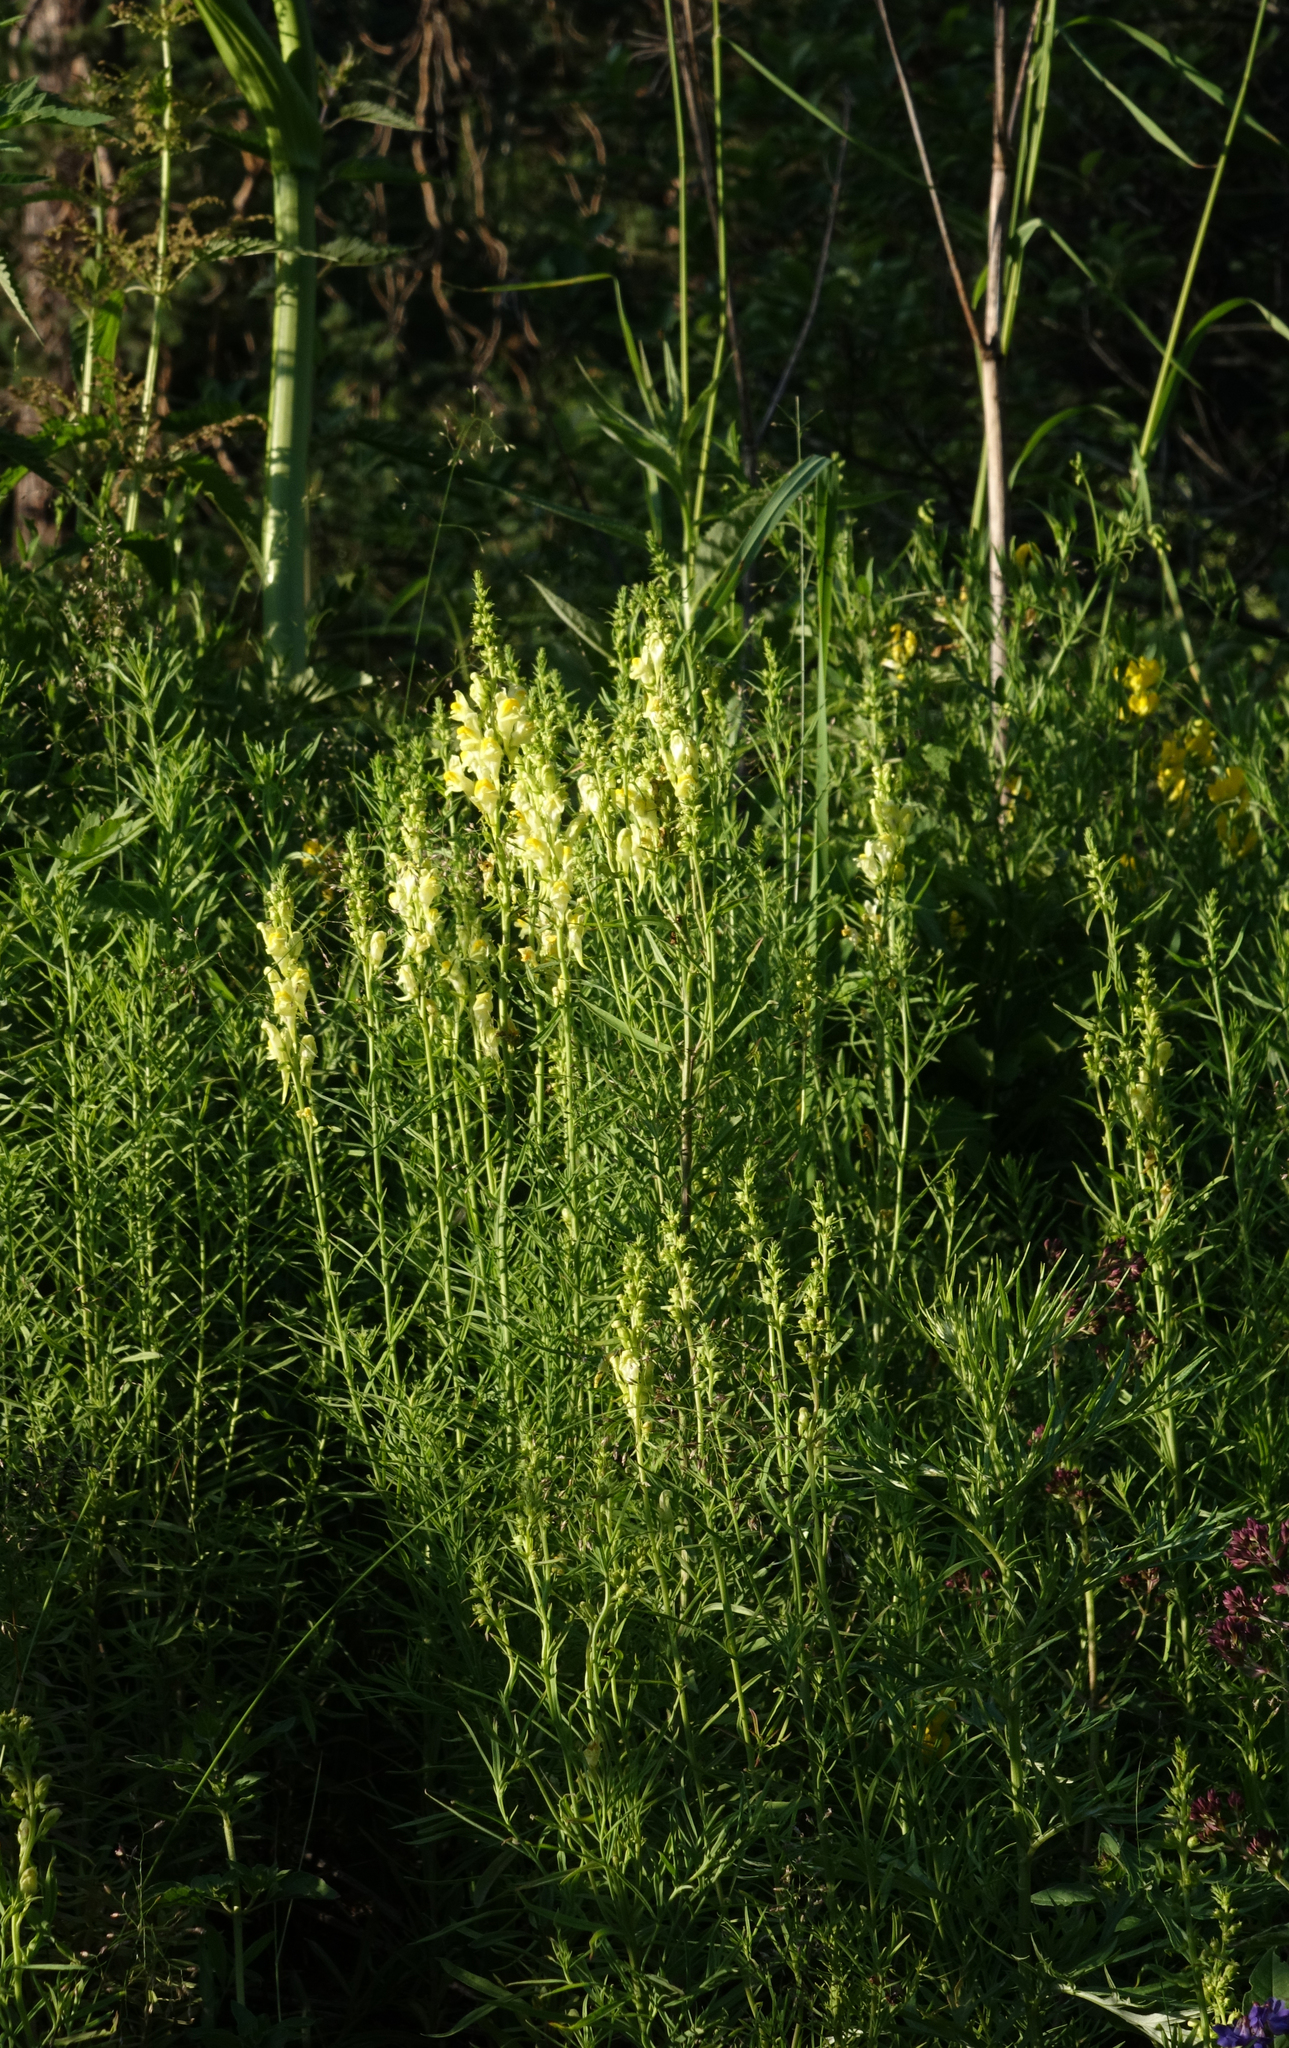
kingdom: Plantae
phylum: Tracheophyta
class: Magnoliopsida
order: Lamiales
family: Plantaginaceae
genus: Linaria
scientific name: Linaria vulgaris
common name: Butter and eggs
